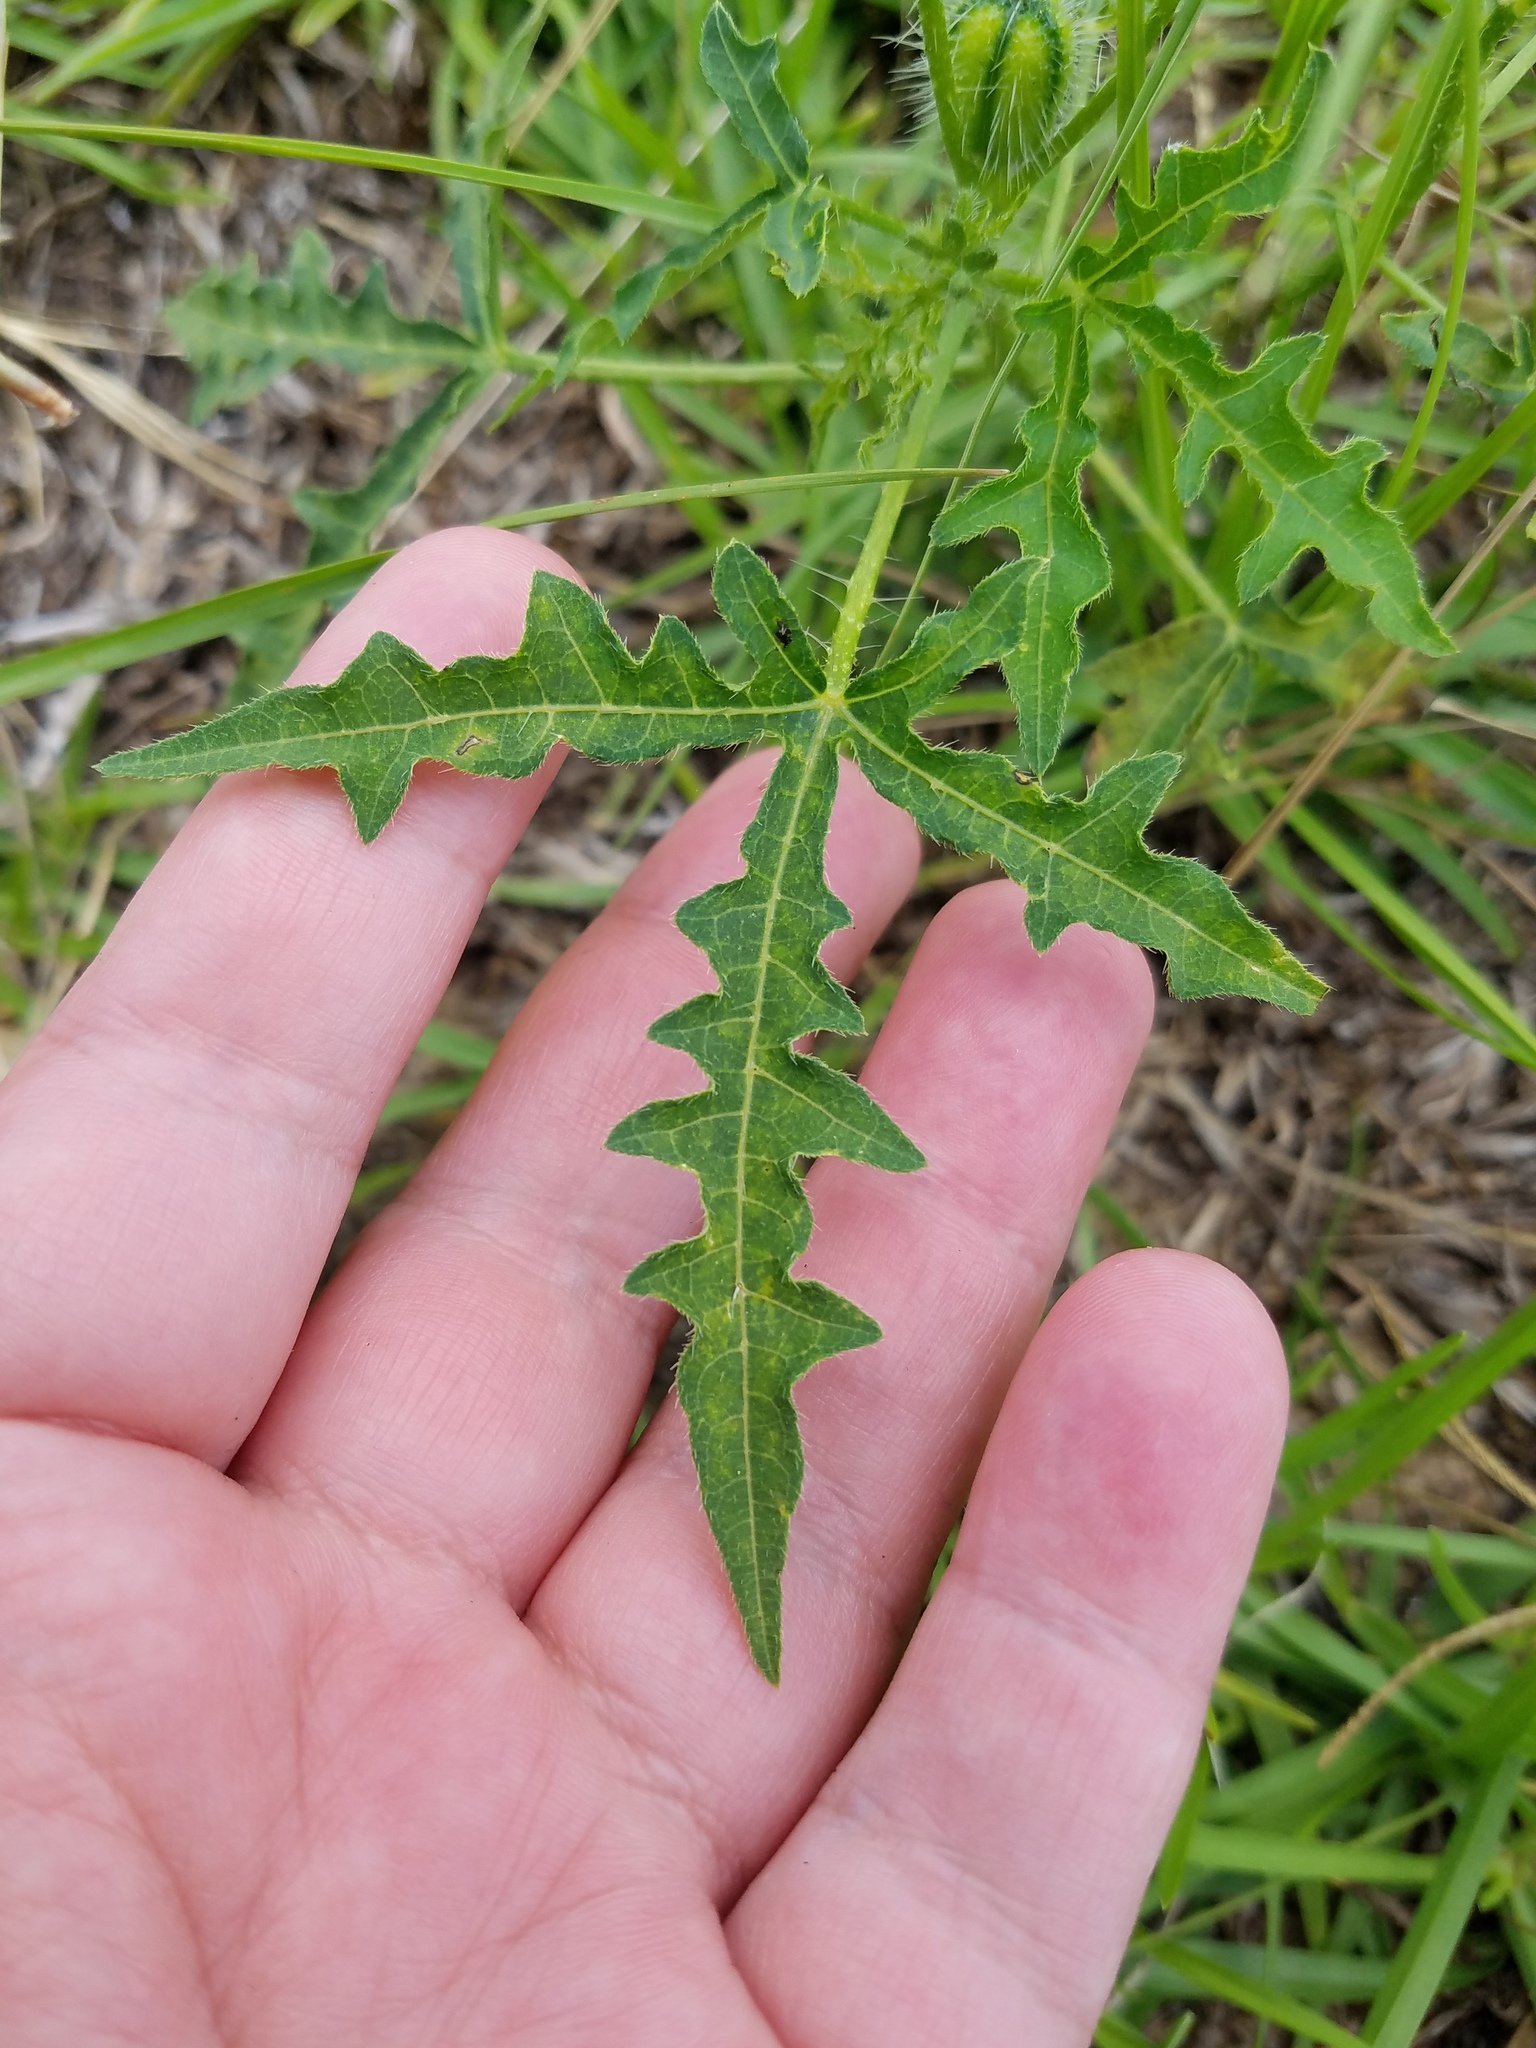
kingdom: Plantae
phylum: Tracheophyta
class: Magnoliopsida
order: Malpighiales
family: Euphorbiaceae
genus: Cnidoscolus
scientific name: Cnidoscolus stimulosus
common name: Bull-nettle
